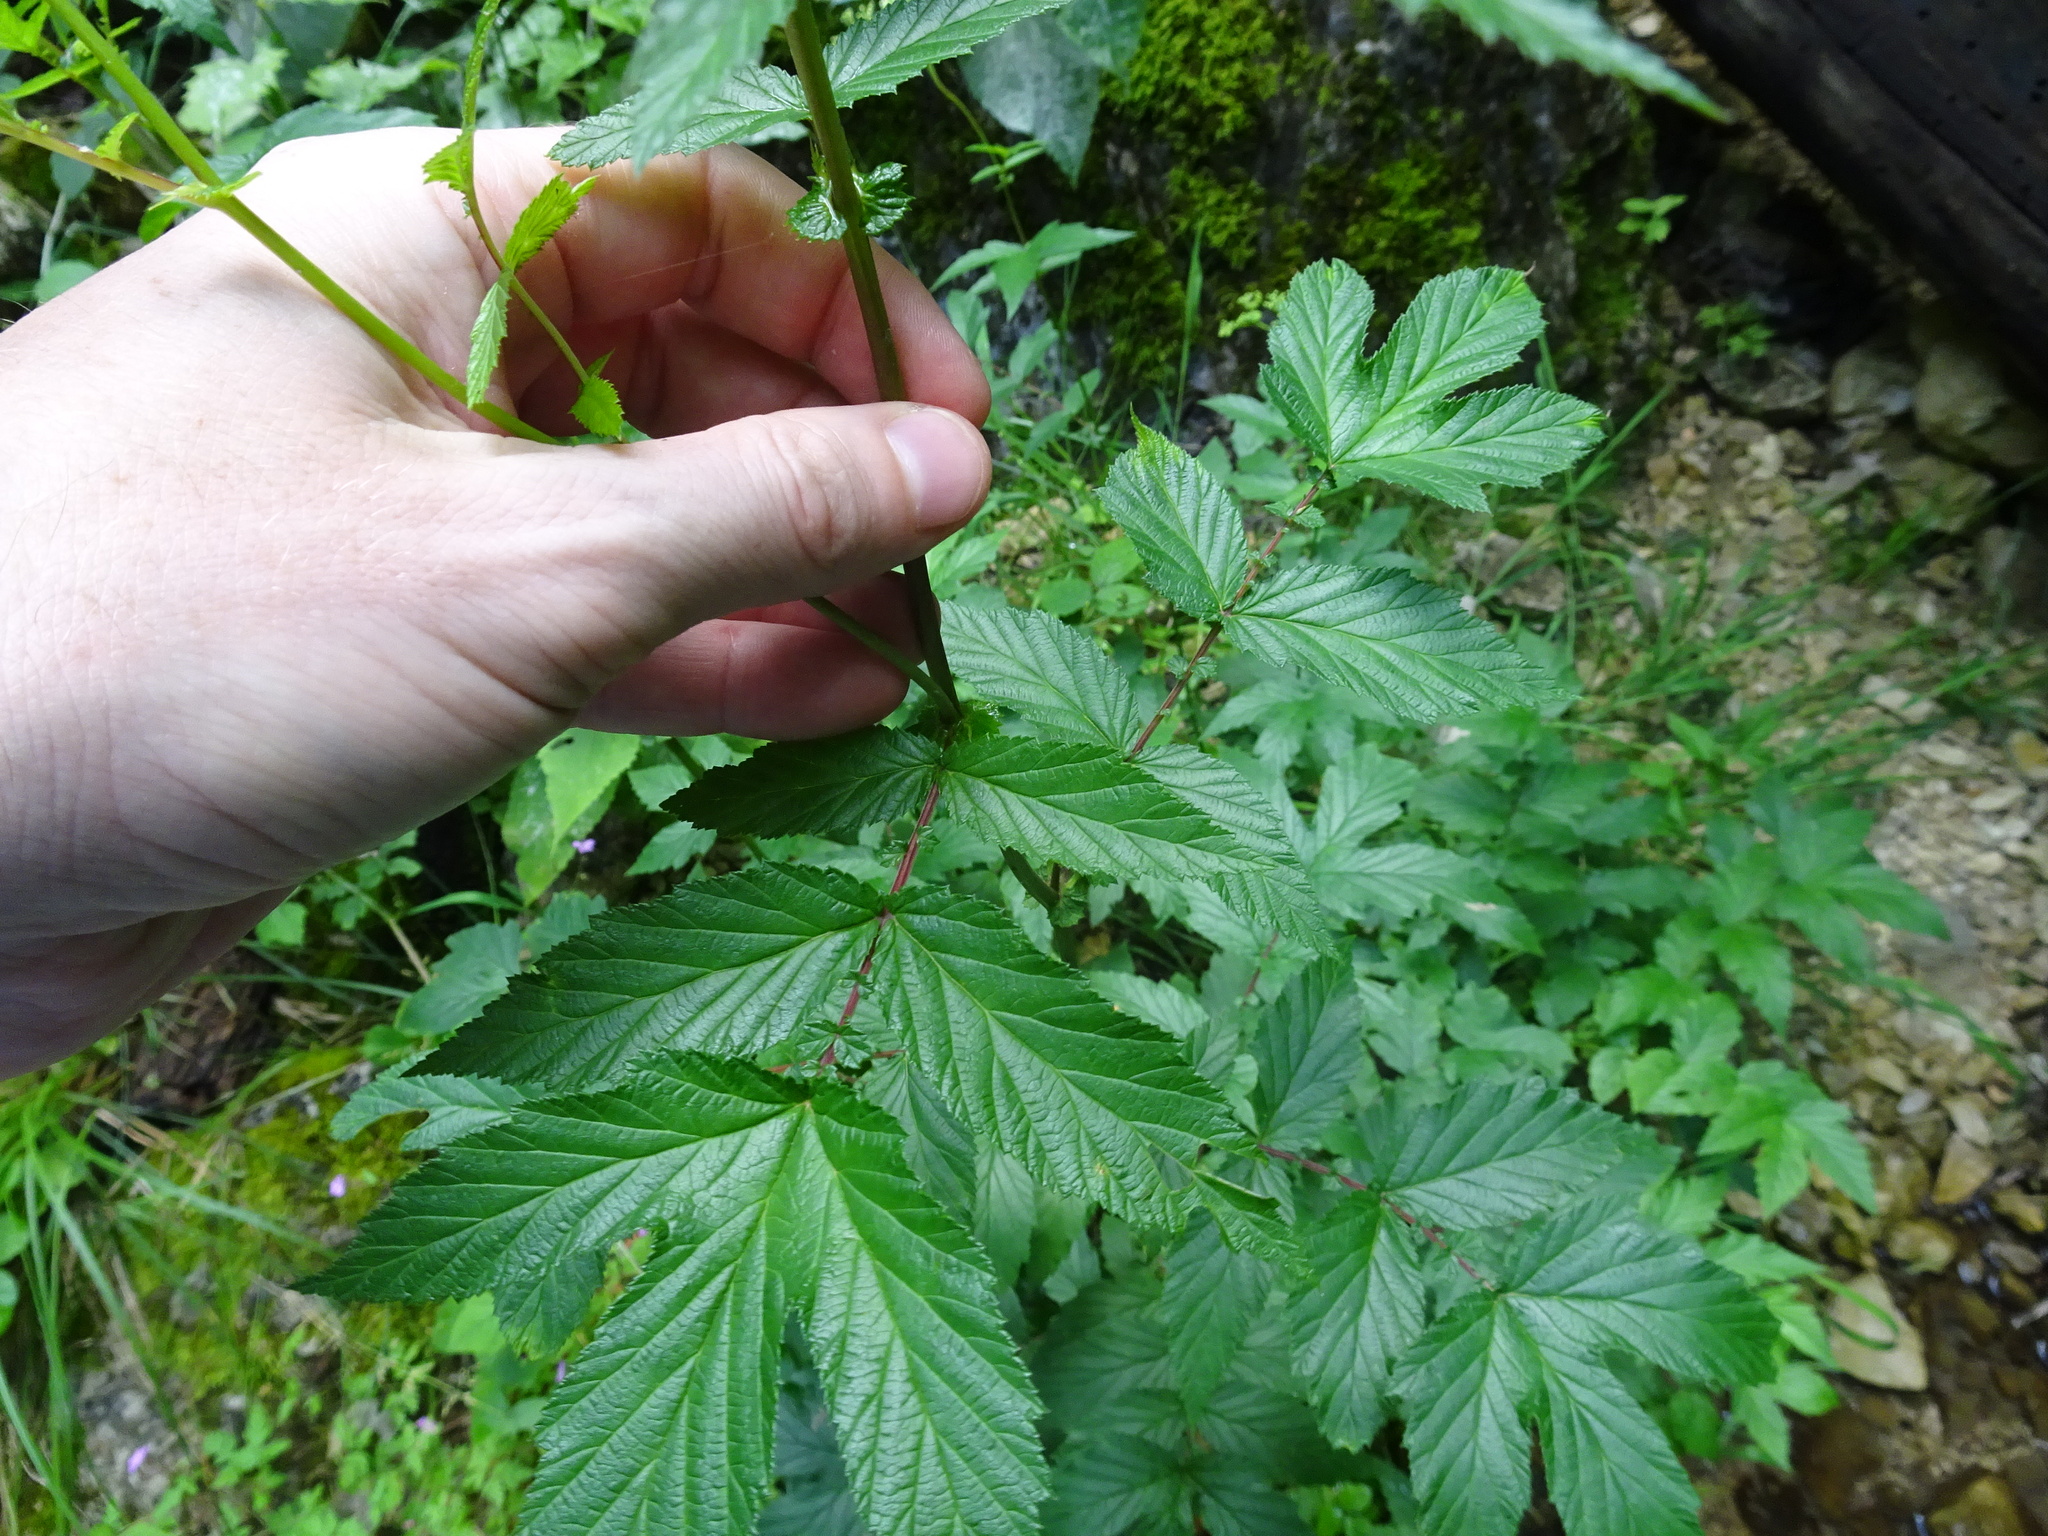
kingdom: Plantae
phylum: Tracheophyta
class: Magnoliopsida
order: Rosales
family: Rosaceae
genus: Filipendula
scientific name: Filipendula ulmaria
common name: Meadowsweet
